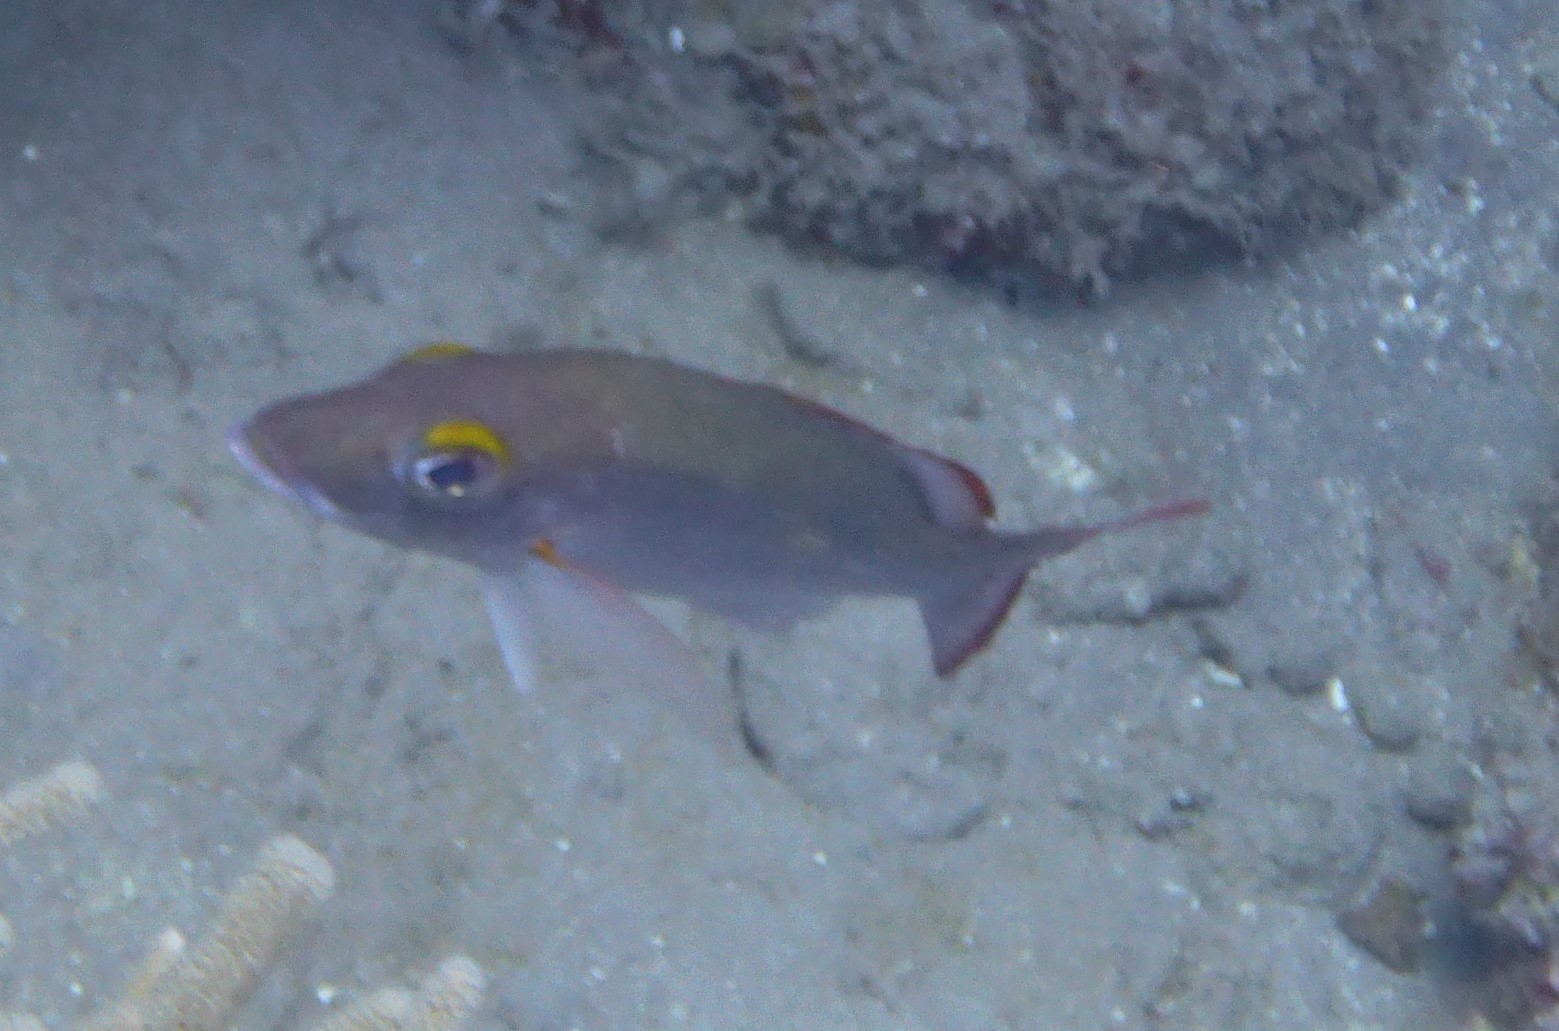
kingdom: Animalia
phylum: Chordata
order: Perciformes
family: Lutjanidae
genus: Lutjanus
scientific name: Lutjanus mahogoni
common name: Spot snapper
